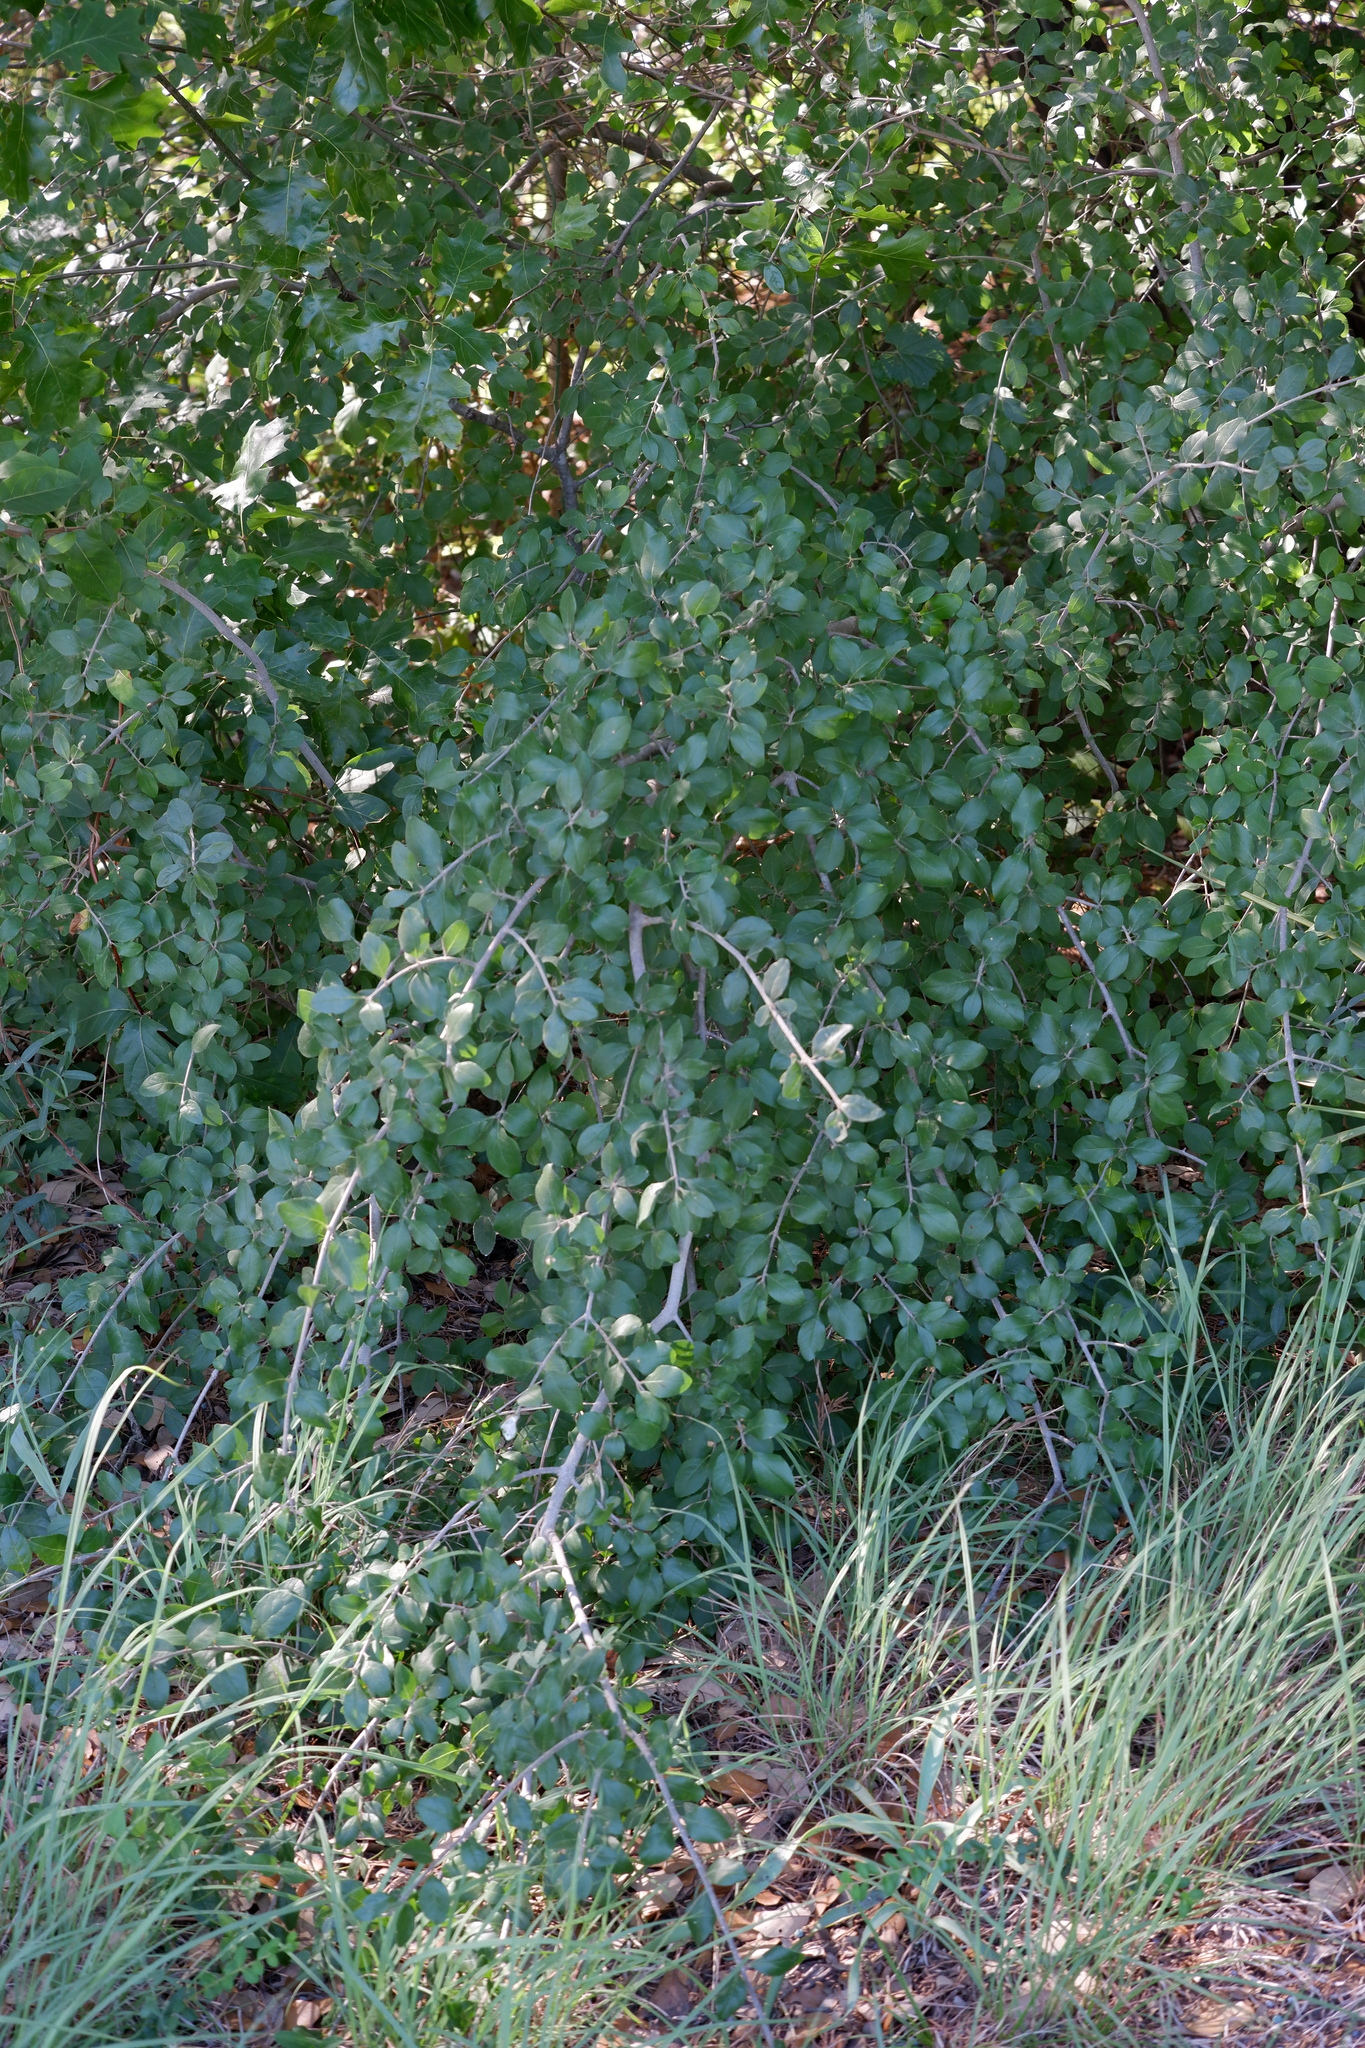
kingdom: Plantae
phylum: Tracheophyta
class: Magnoliopsida
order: Lamiales
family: Oleaceae
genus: Forestiera
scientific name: Forestiera pubescens
